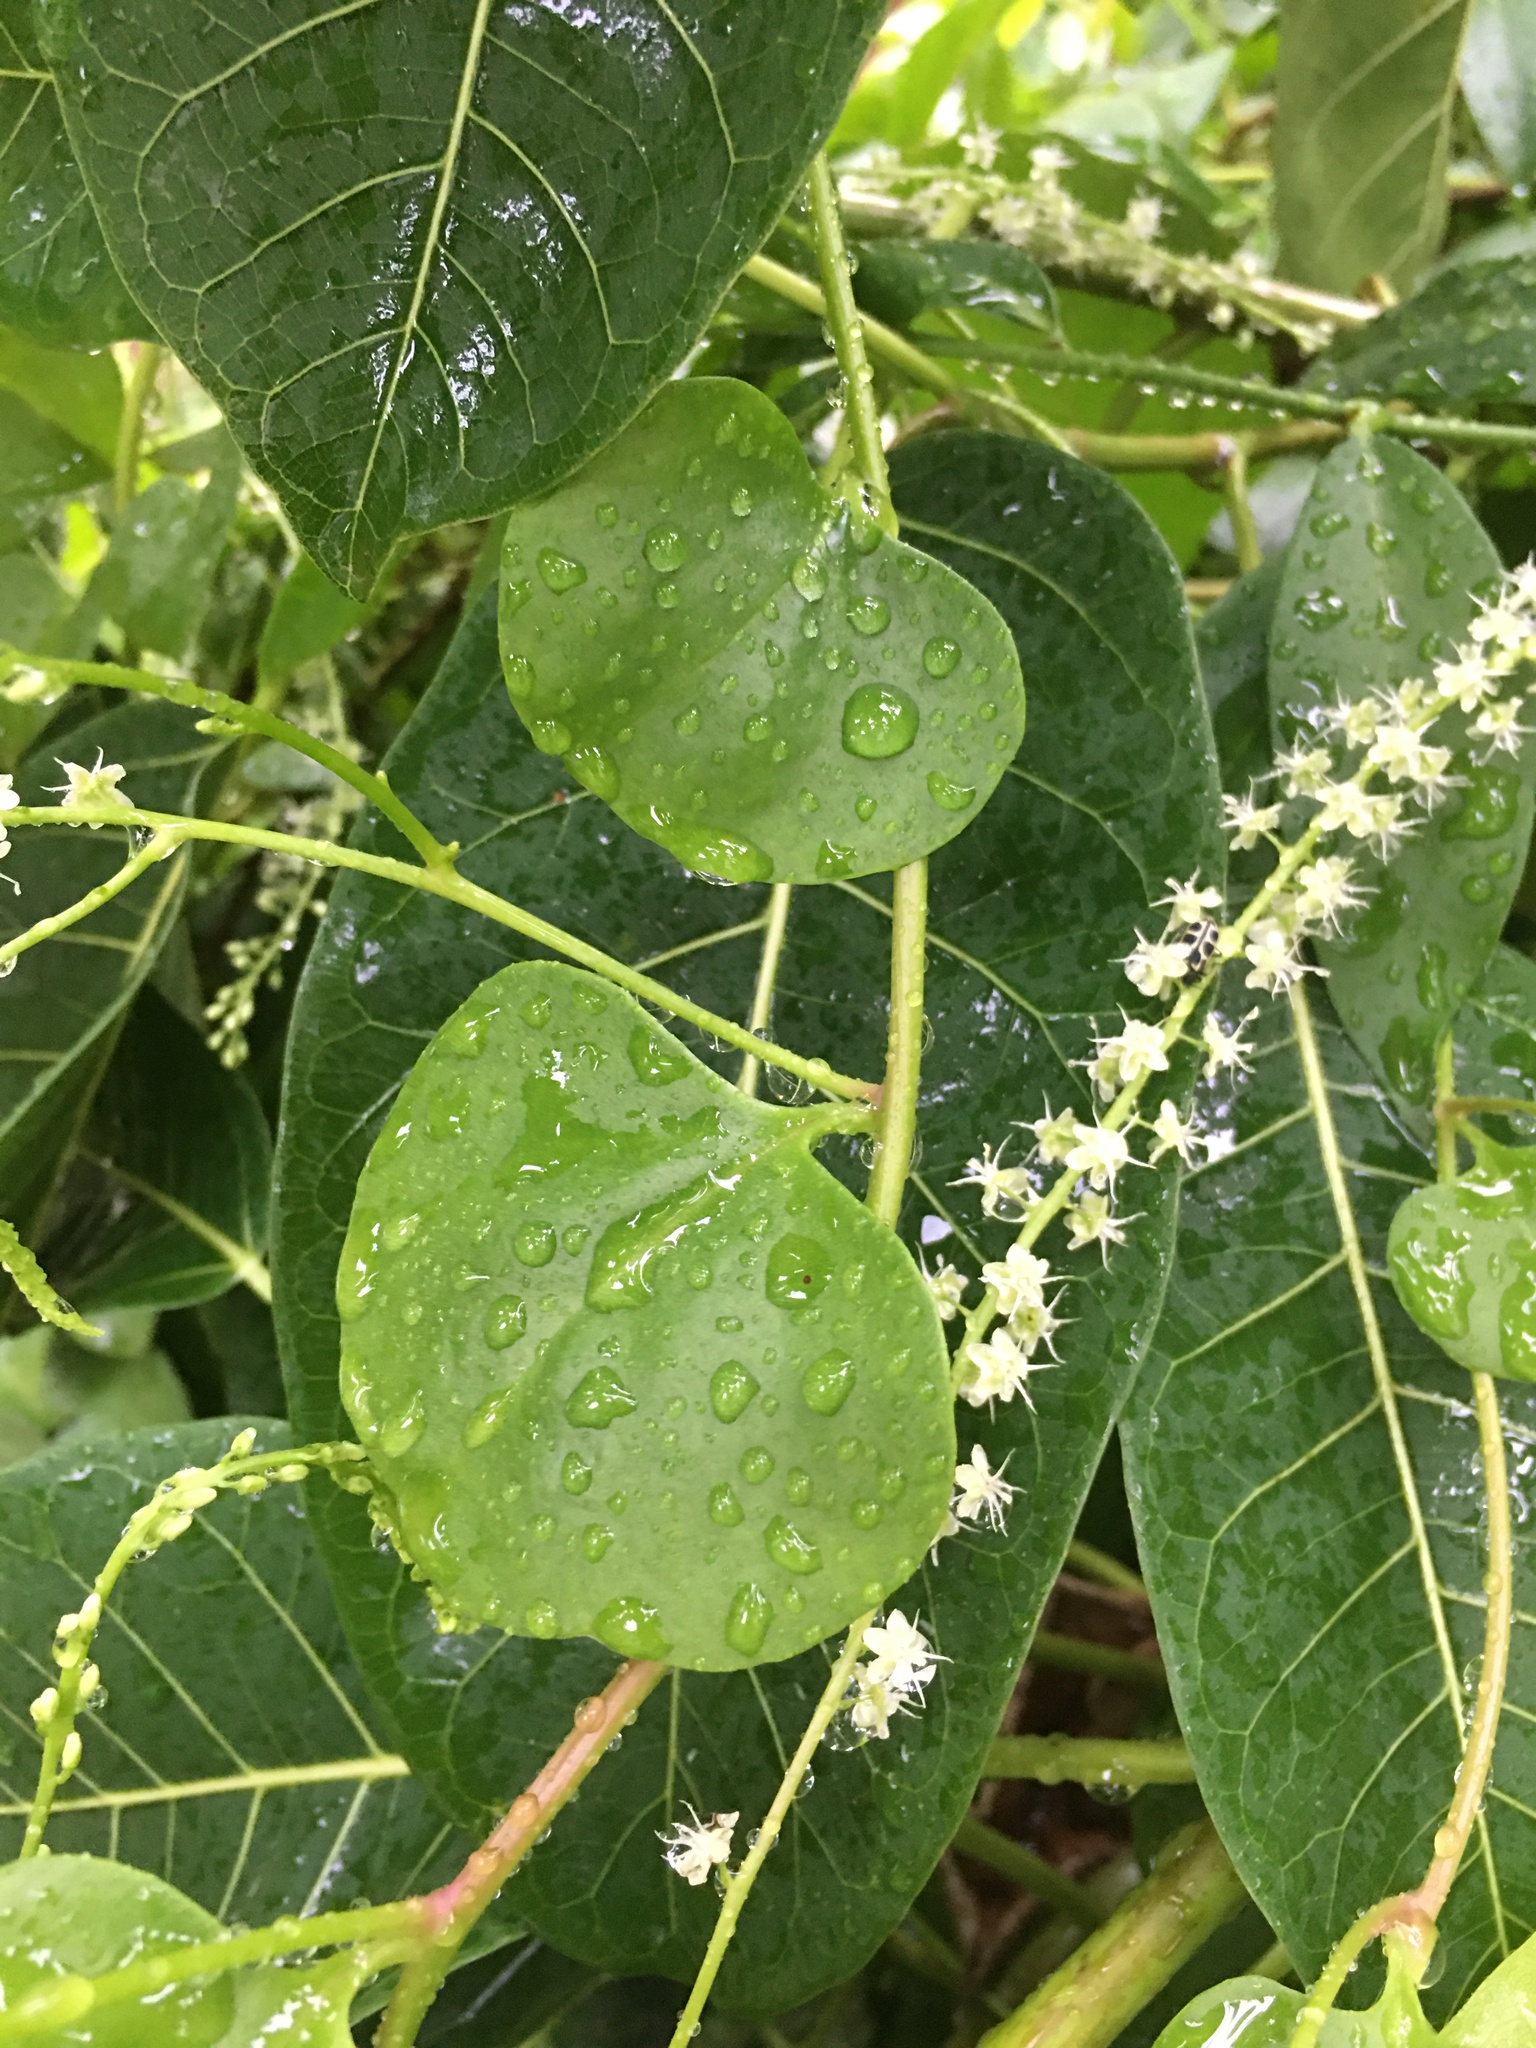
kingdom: Plantae
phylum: Tracheophyta
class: Magnoliopsida
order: Caryophyllales
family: Basellaceae
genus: Anredera
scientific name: Anredera cordifolia
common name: Heartleaf madeiravine
